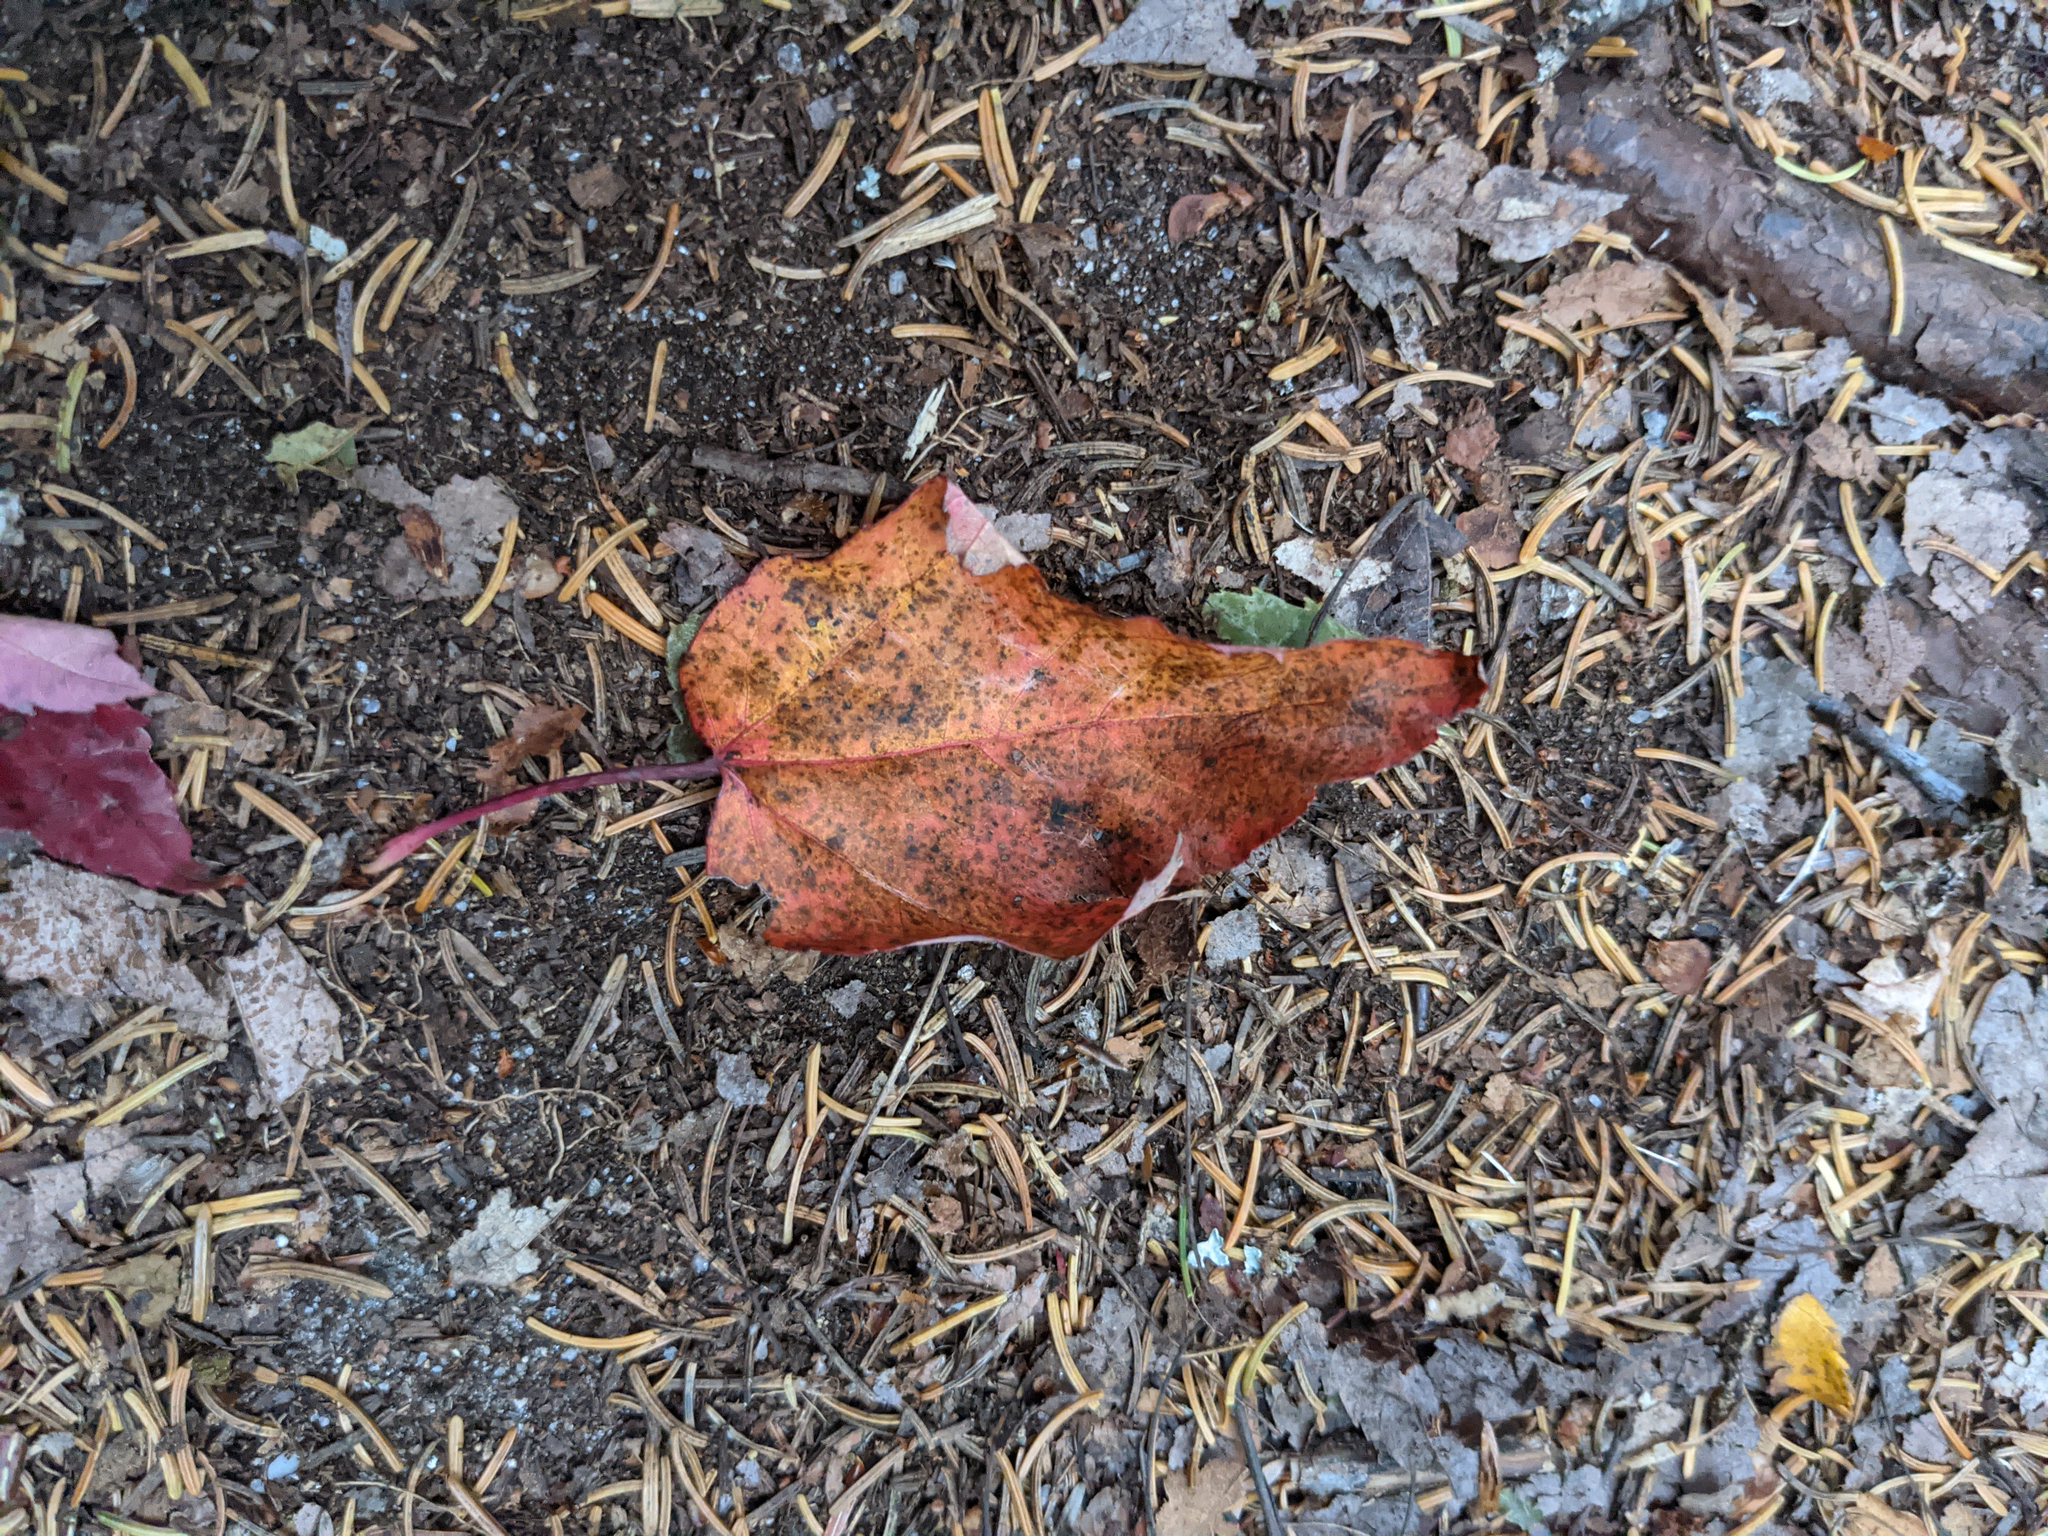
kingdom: Plantae
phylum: Tracheophyta
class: Magnoliopsida
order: Sapindales
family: Sapindaceae
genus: Acer
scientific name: Acer rubrum
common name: Red maple
